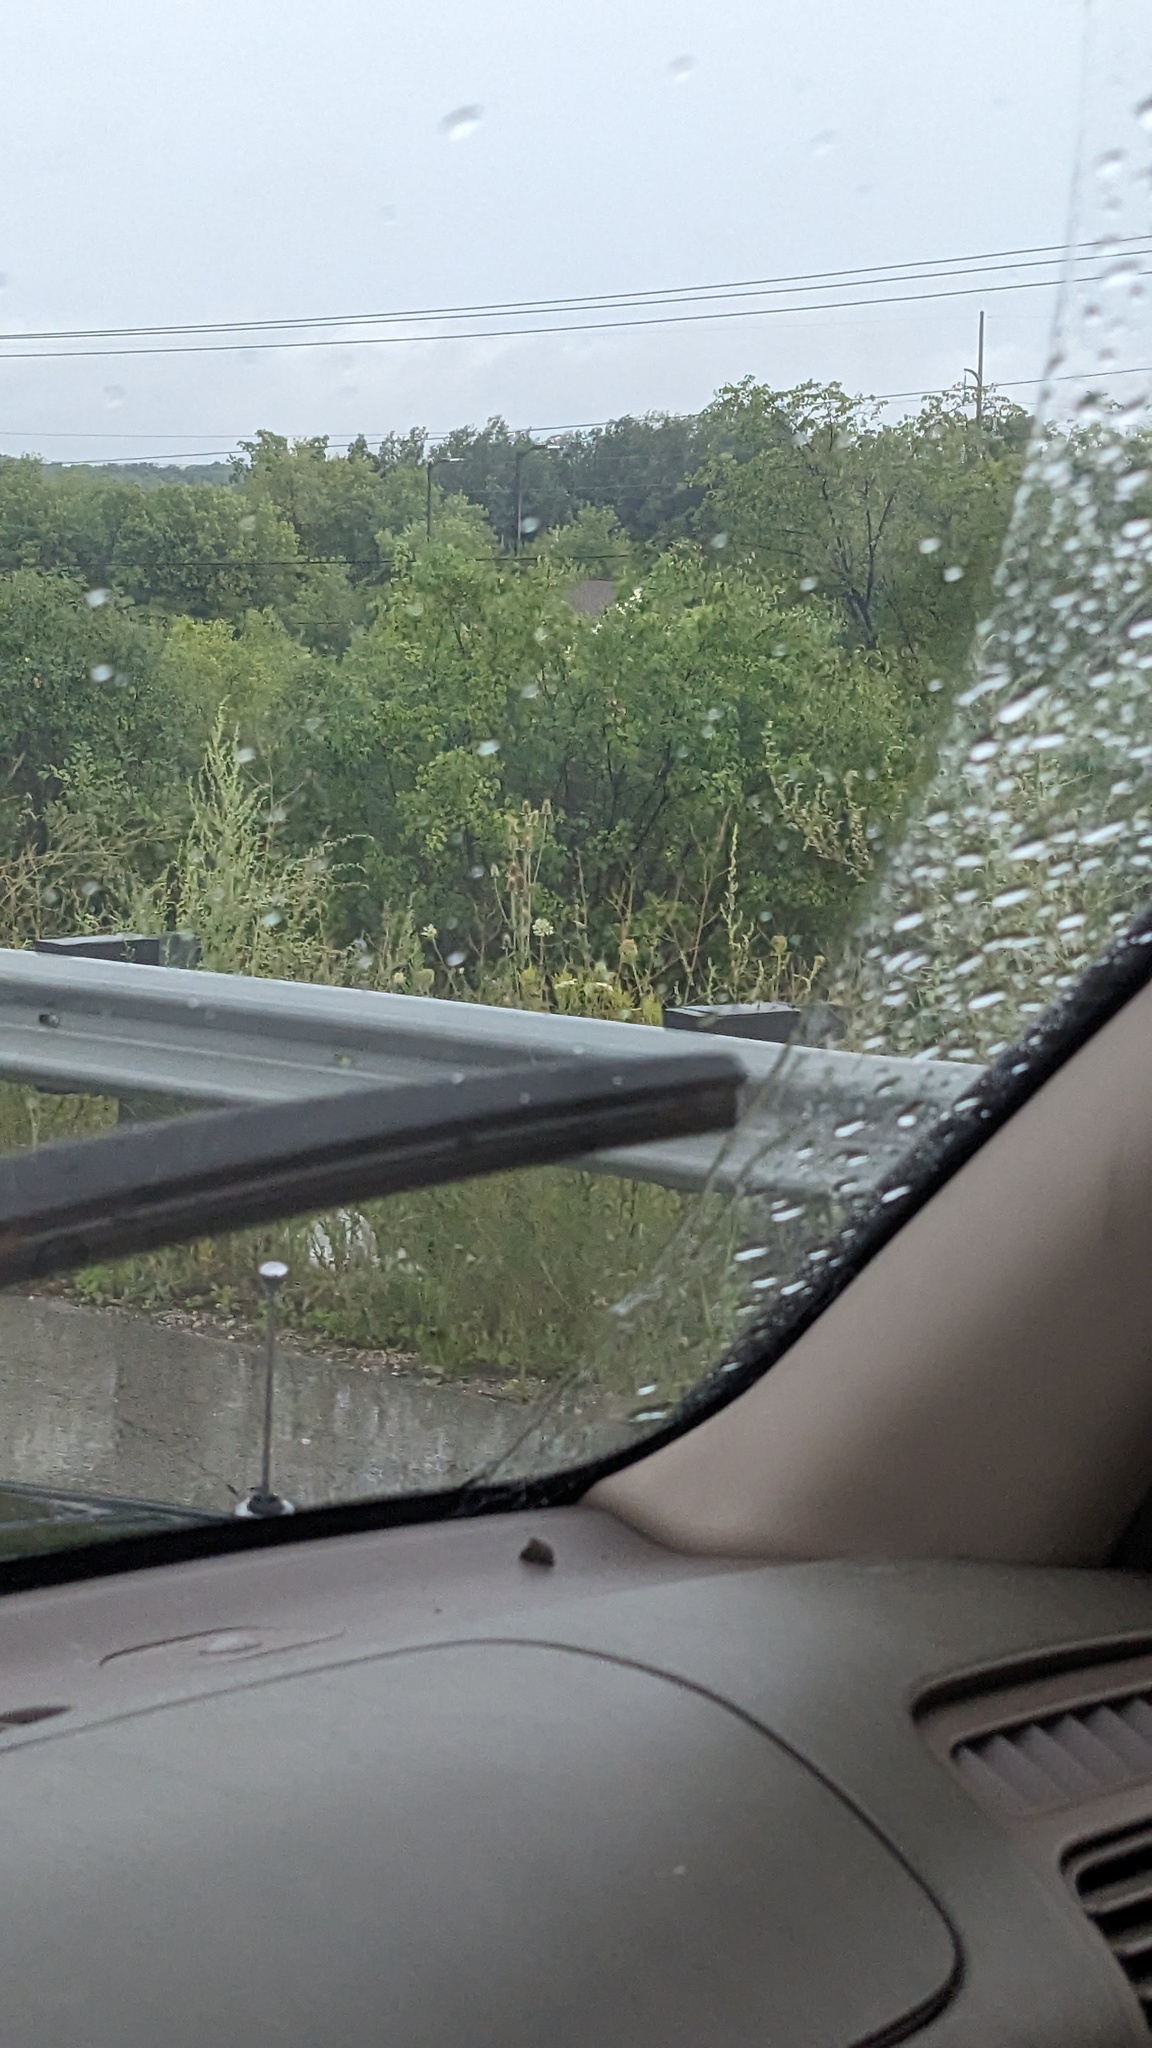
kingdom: Plantae
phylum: Tracheophyta
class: Magnoliopsida
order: Dipsacales
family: Caprifoliaceae
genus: Dipsacus
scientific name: Dipsacus laciniatus
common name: Cut-leaved teasel
